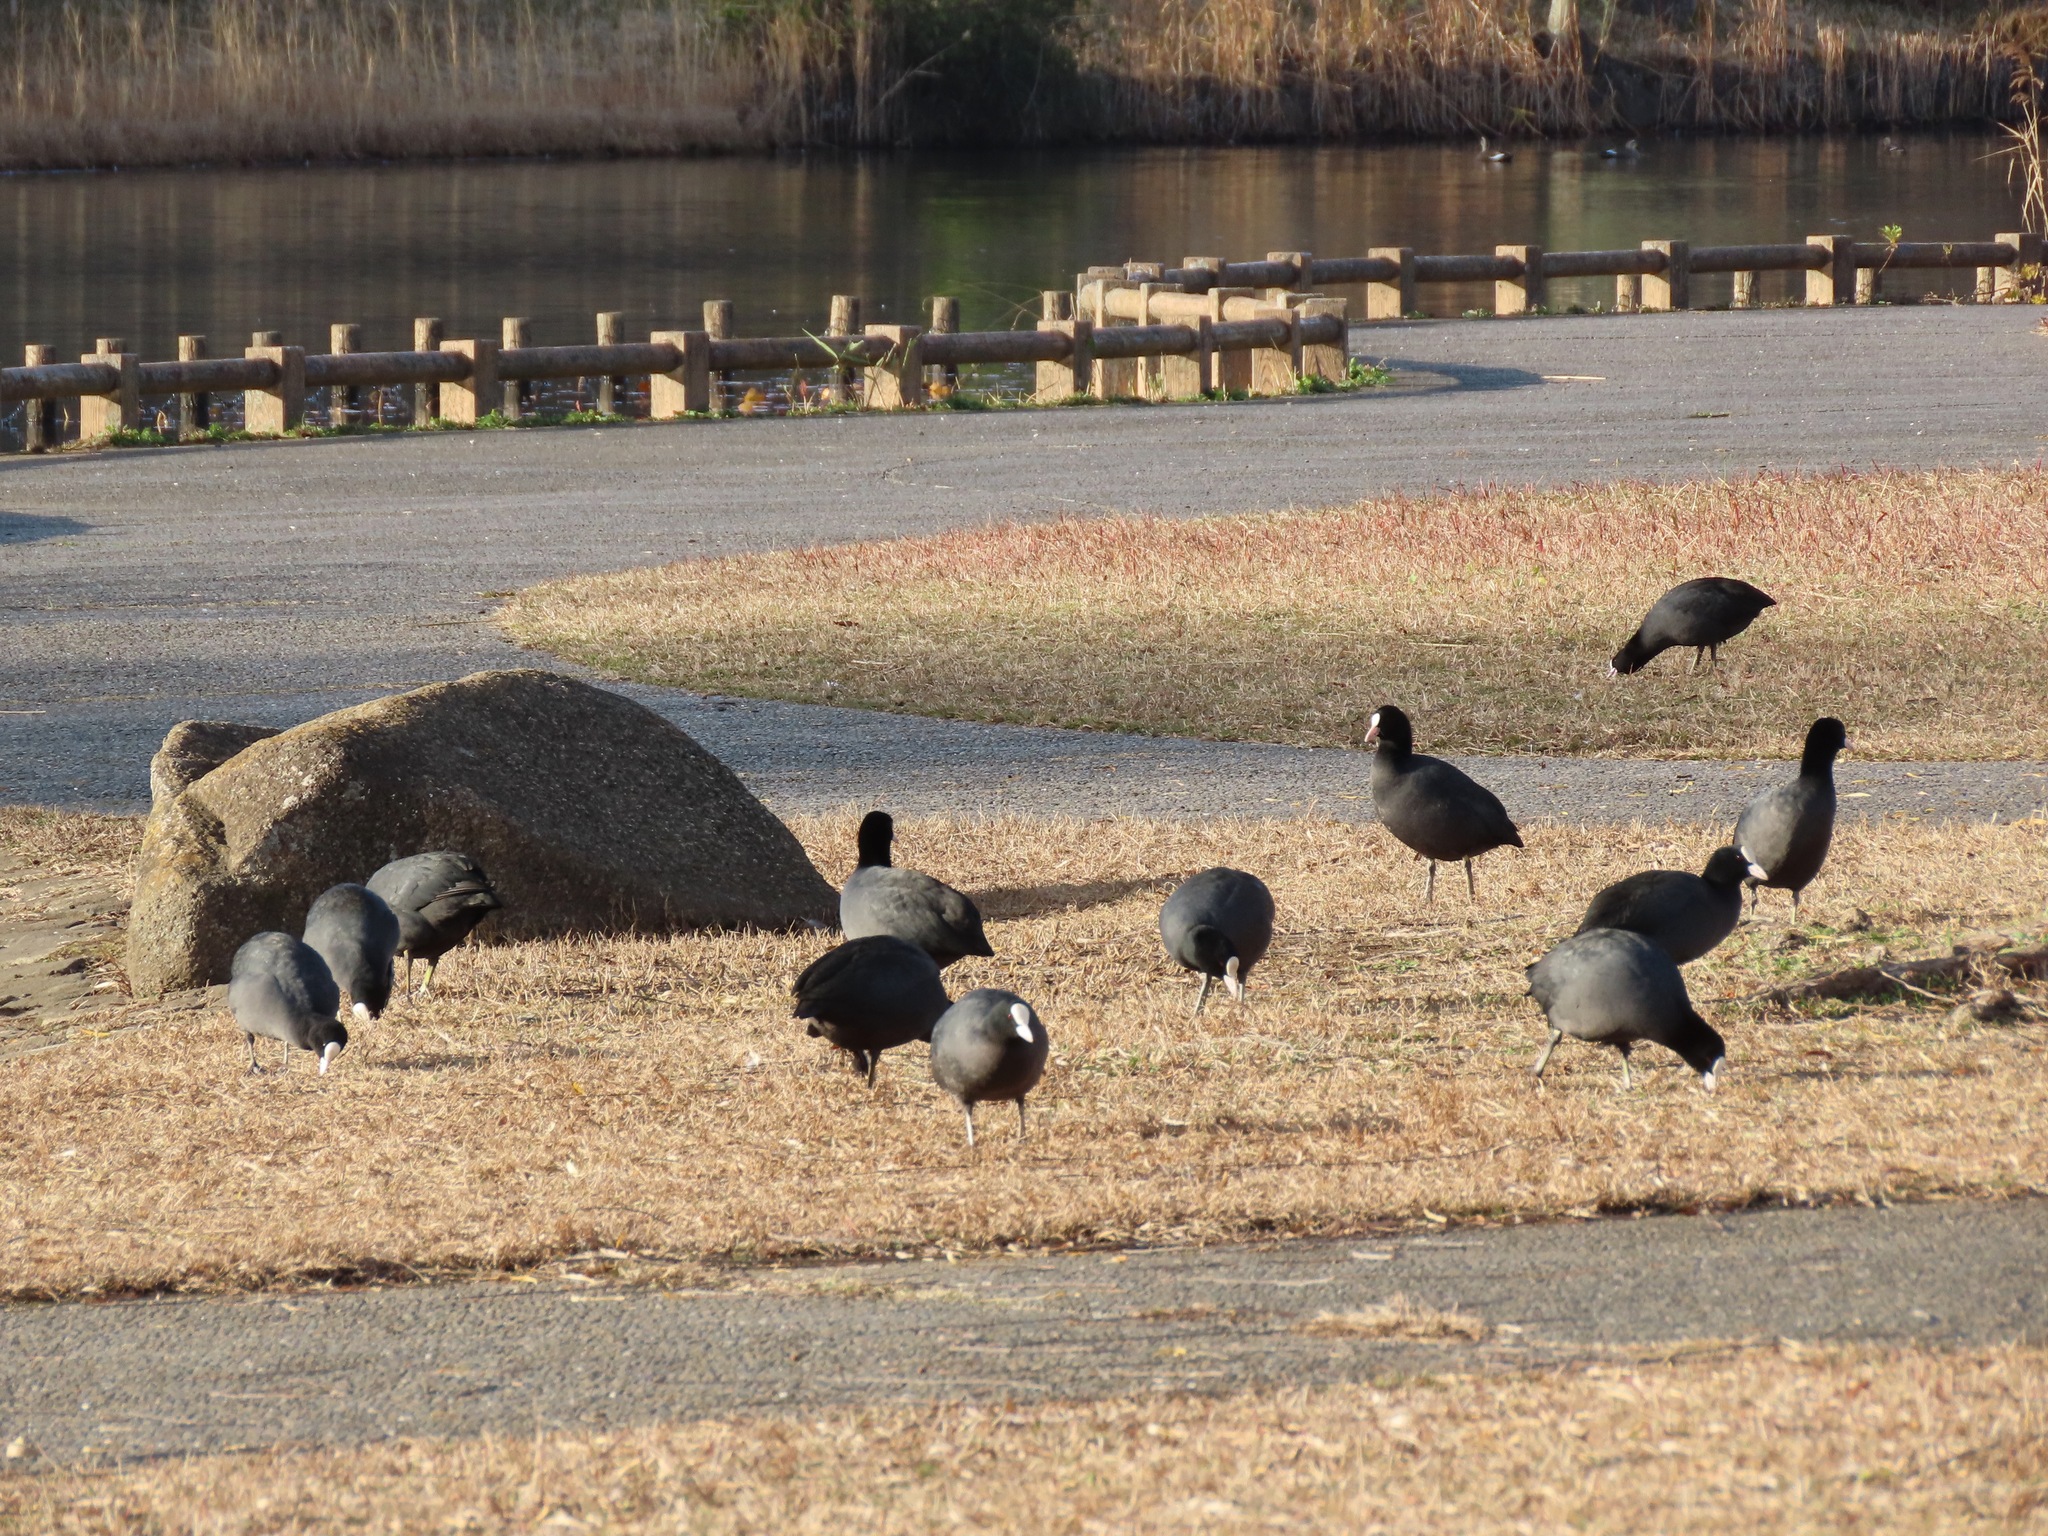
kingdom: Animalia
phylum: Chordata
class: Aves
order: Gruiformes
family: Rallidae
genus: Fulica
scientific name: Fulica atra
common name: Eurasian coot
